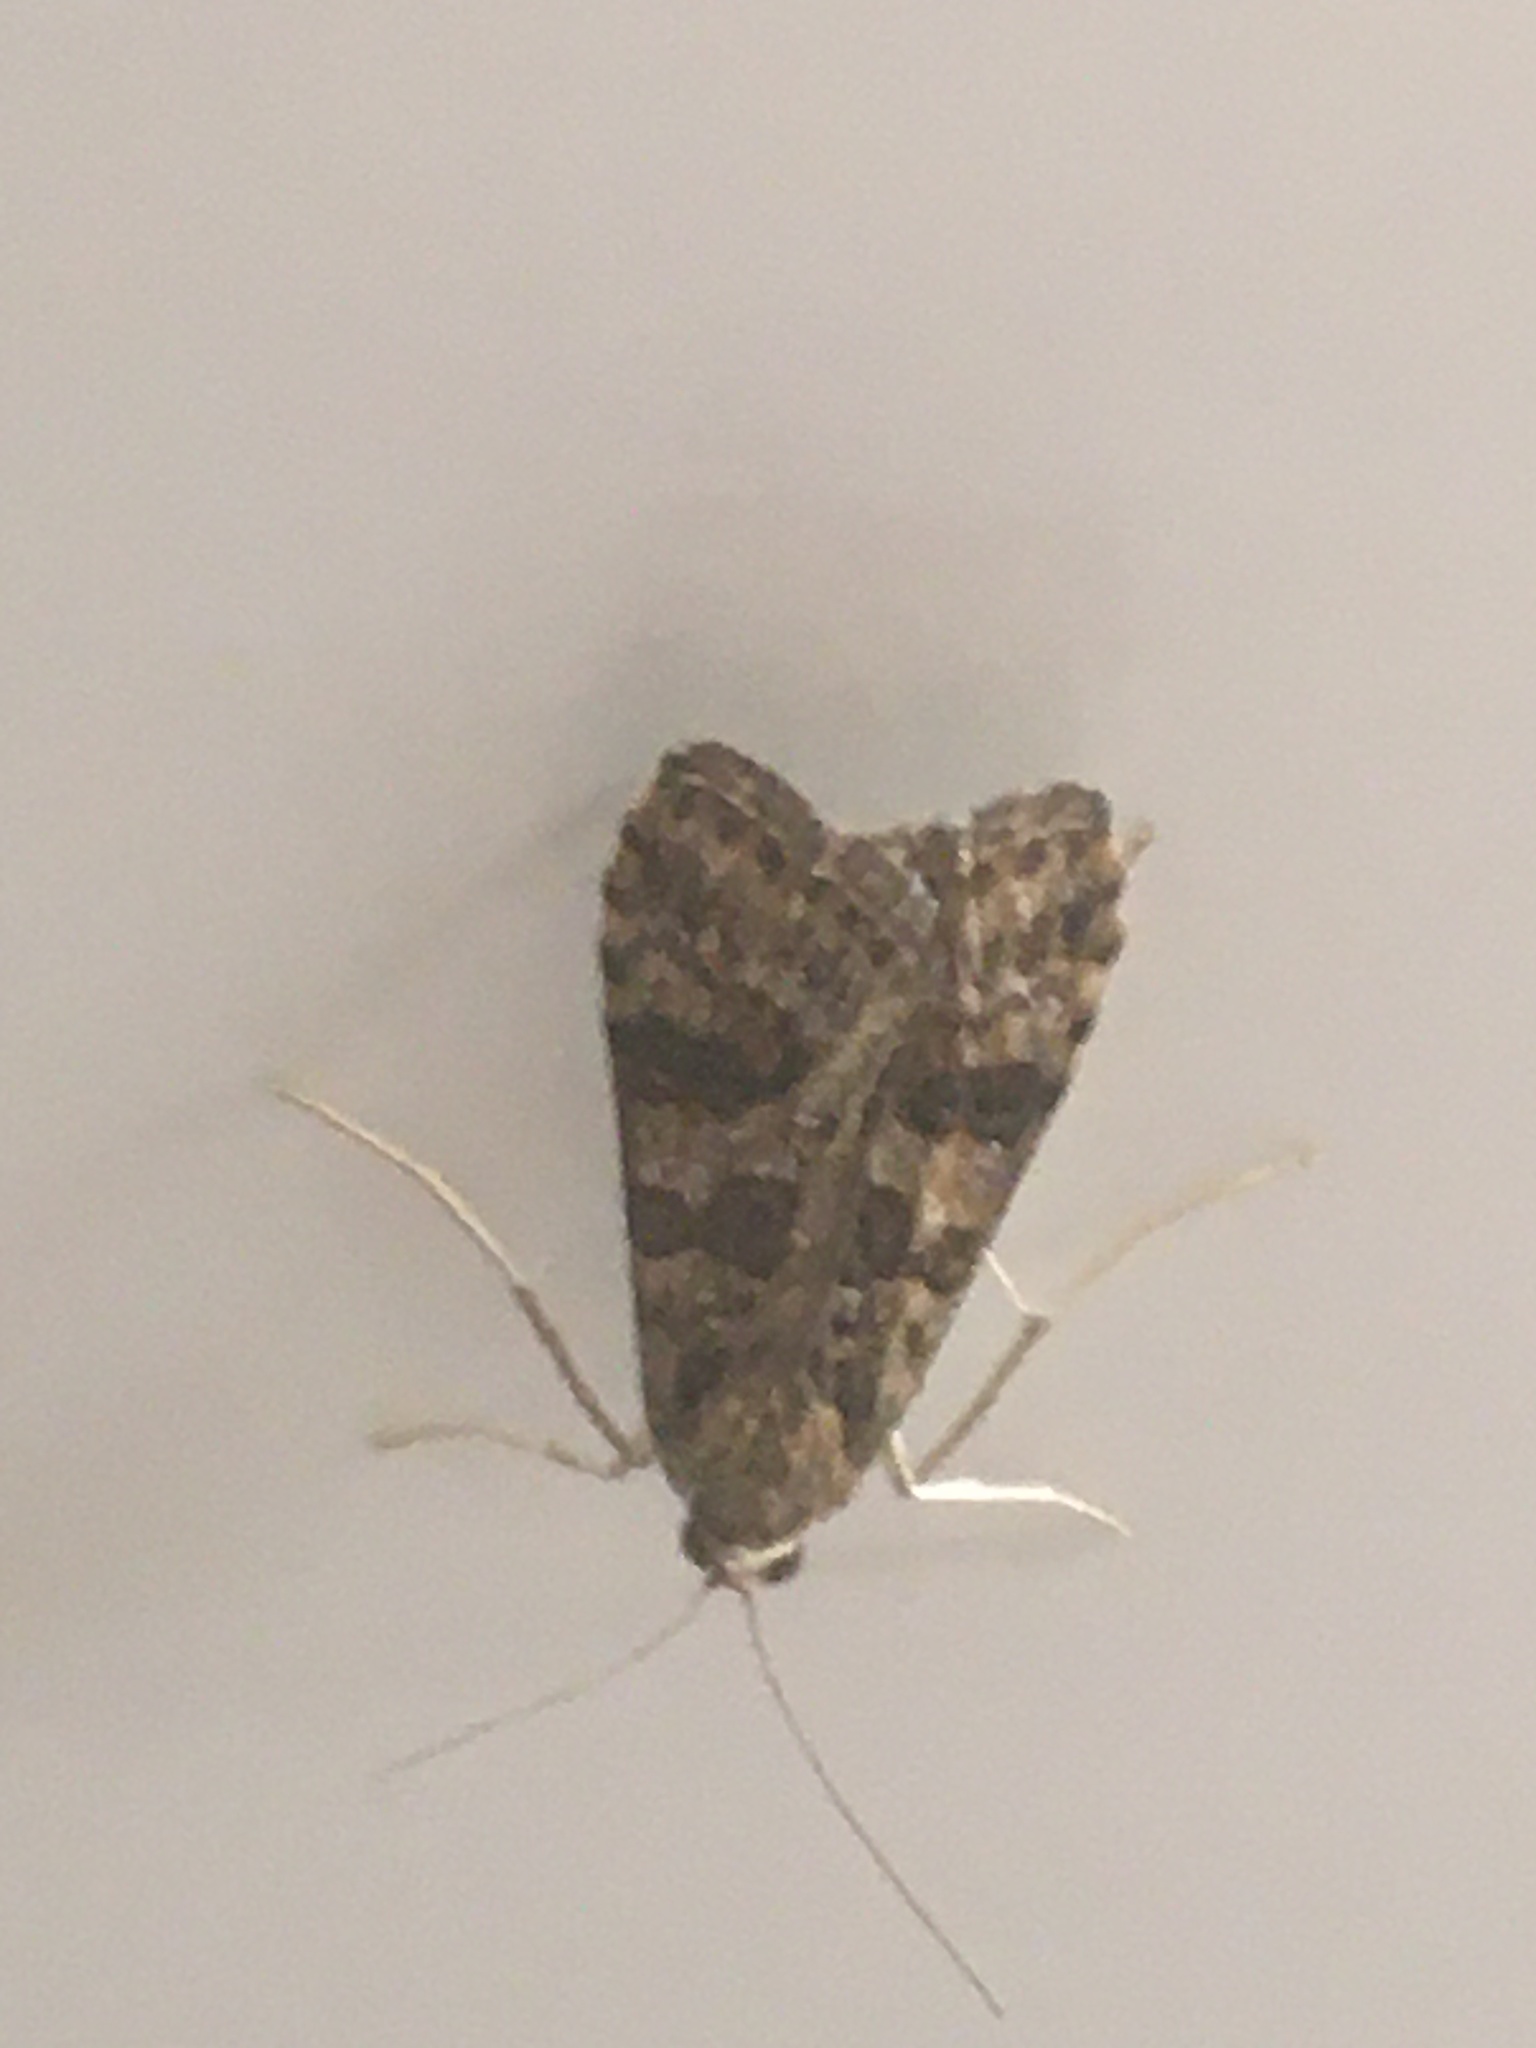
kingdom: Animalia
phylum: Arthropoda
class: Insecta
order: Lepidoptera
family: Crambidae
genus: Nomophila
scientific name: Nomophila noctuella
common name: Rush veneer
